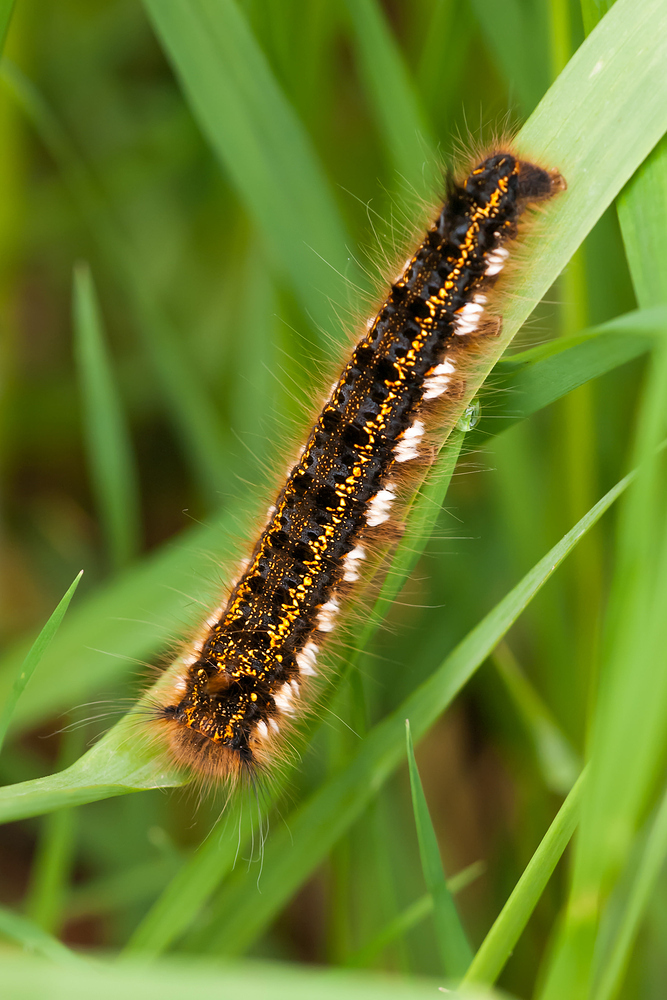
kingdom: Animalia
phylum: Arthropoda
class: Insecta
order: Lepidoptera
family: Lasiocampidae
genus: Euthrix
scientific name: Euthrix potatoria
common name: Drinker
